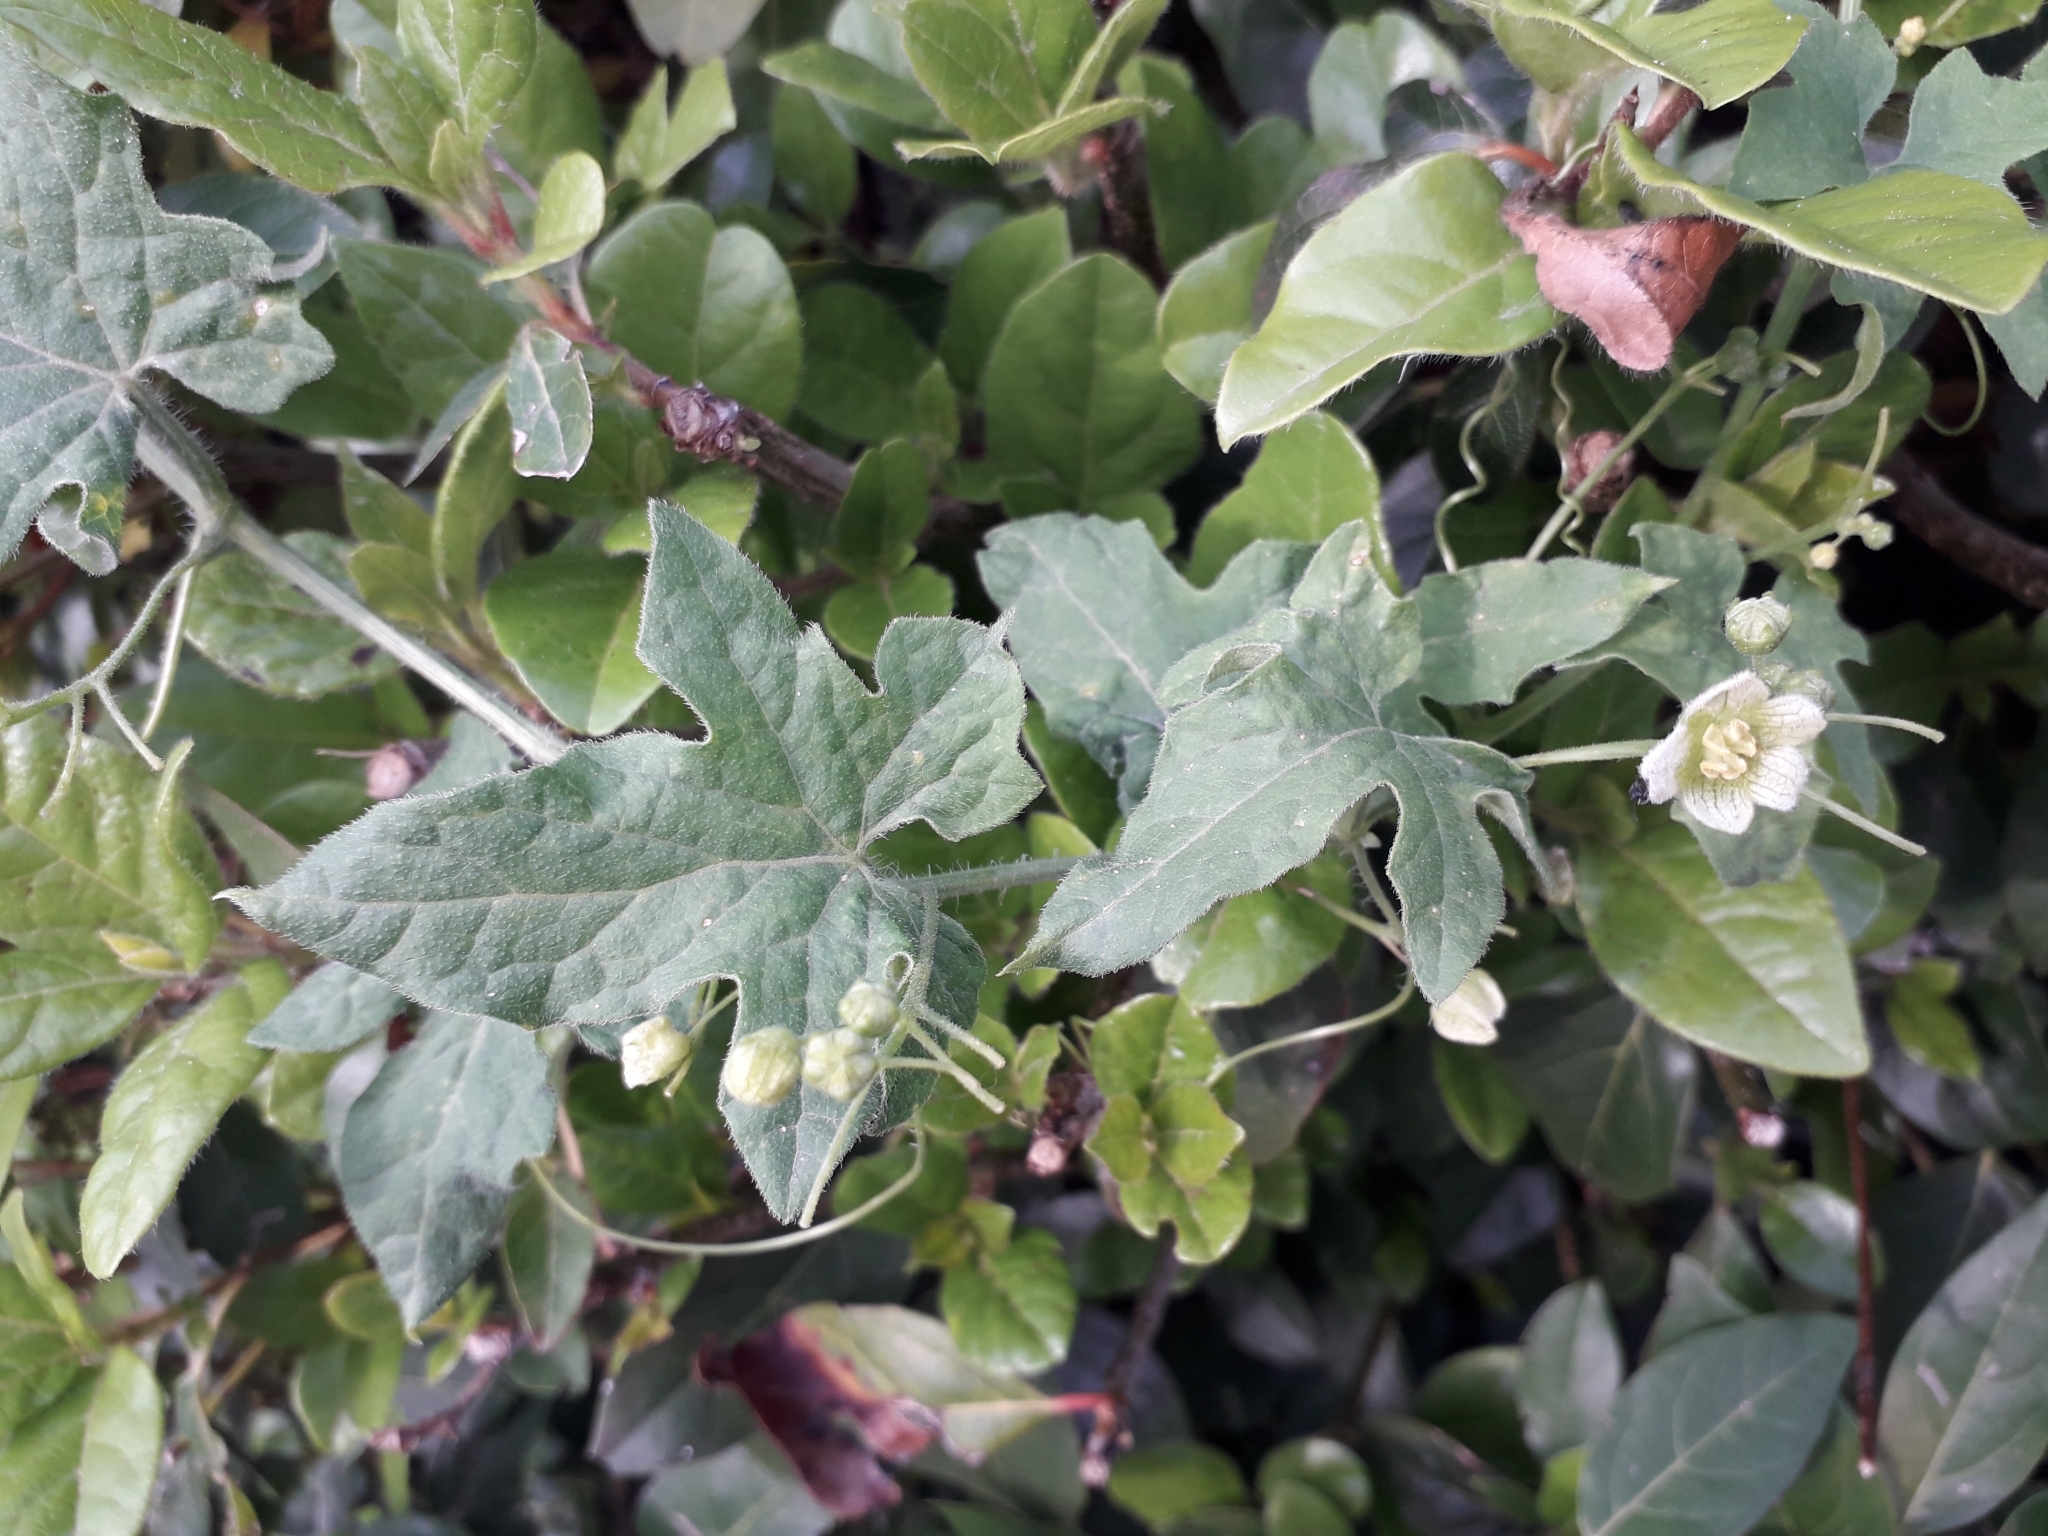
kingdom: Plantae
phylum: Tracheophyta
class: Magnoliopsida
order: Cucurbitales
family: Cucurbitaceae
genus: Bryonia
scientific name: Bryonia cretica
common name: Cretan bryony
